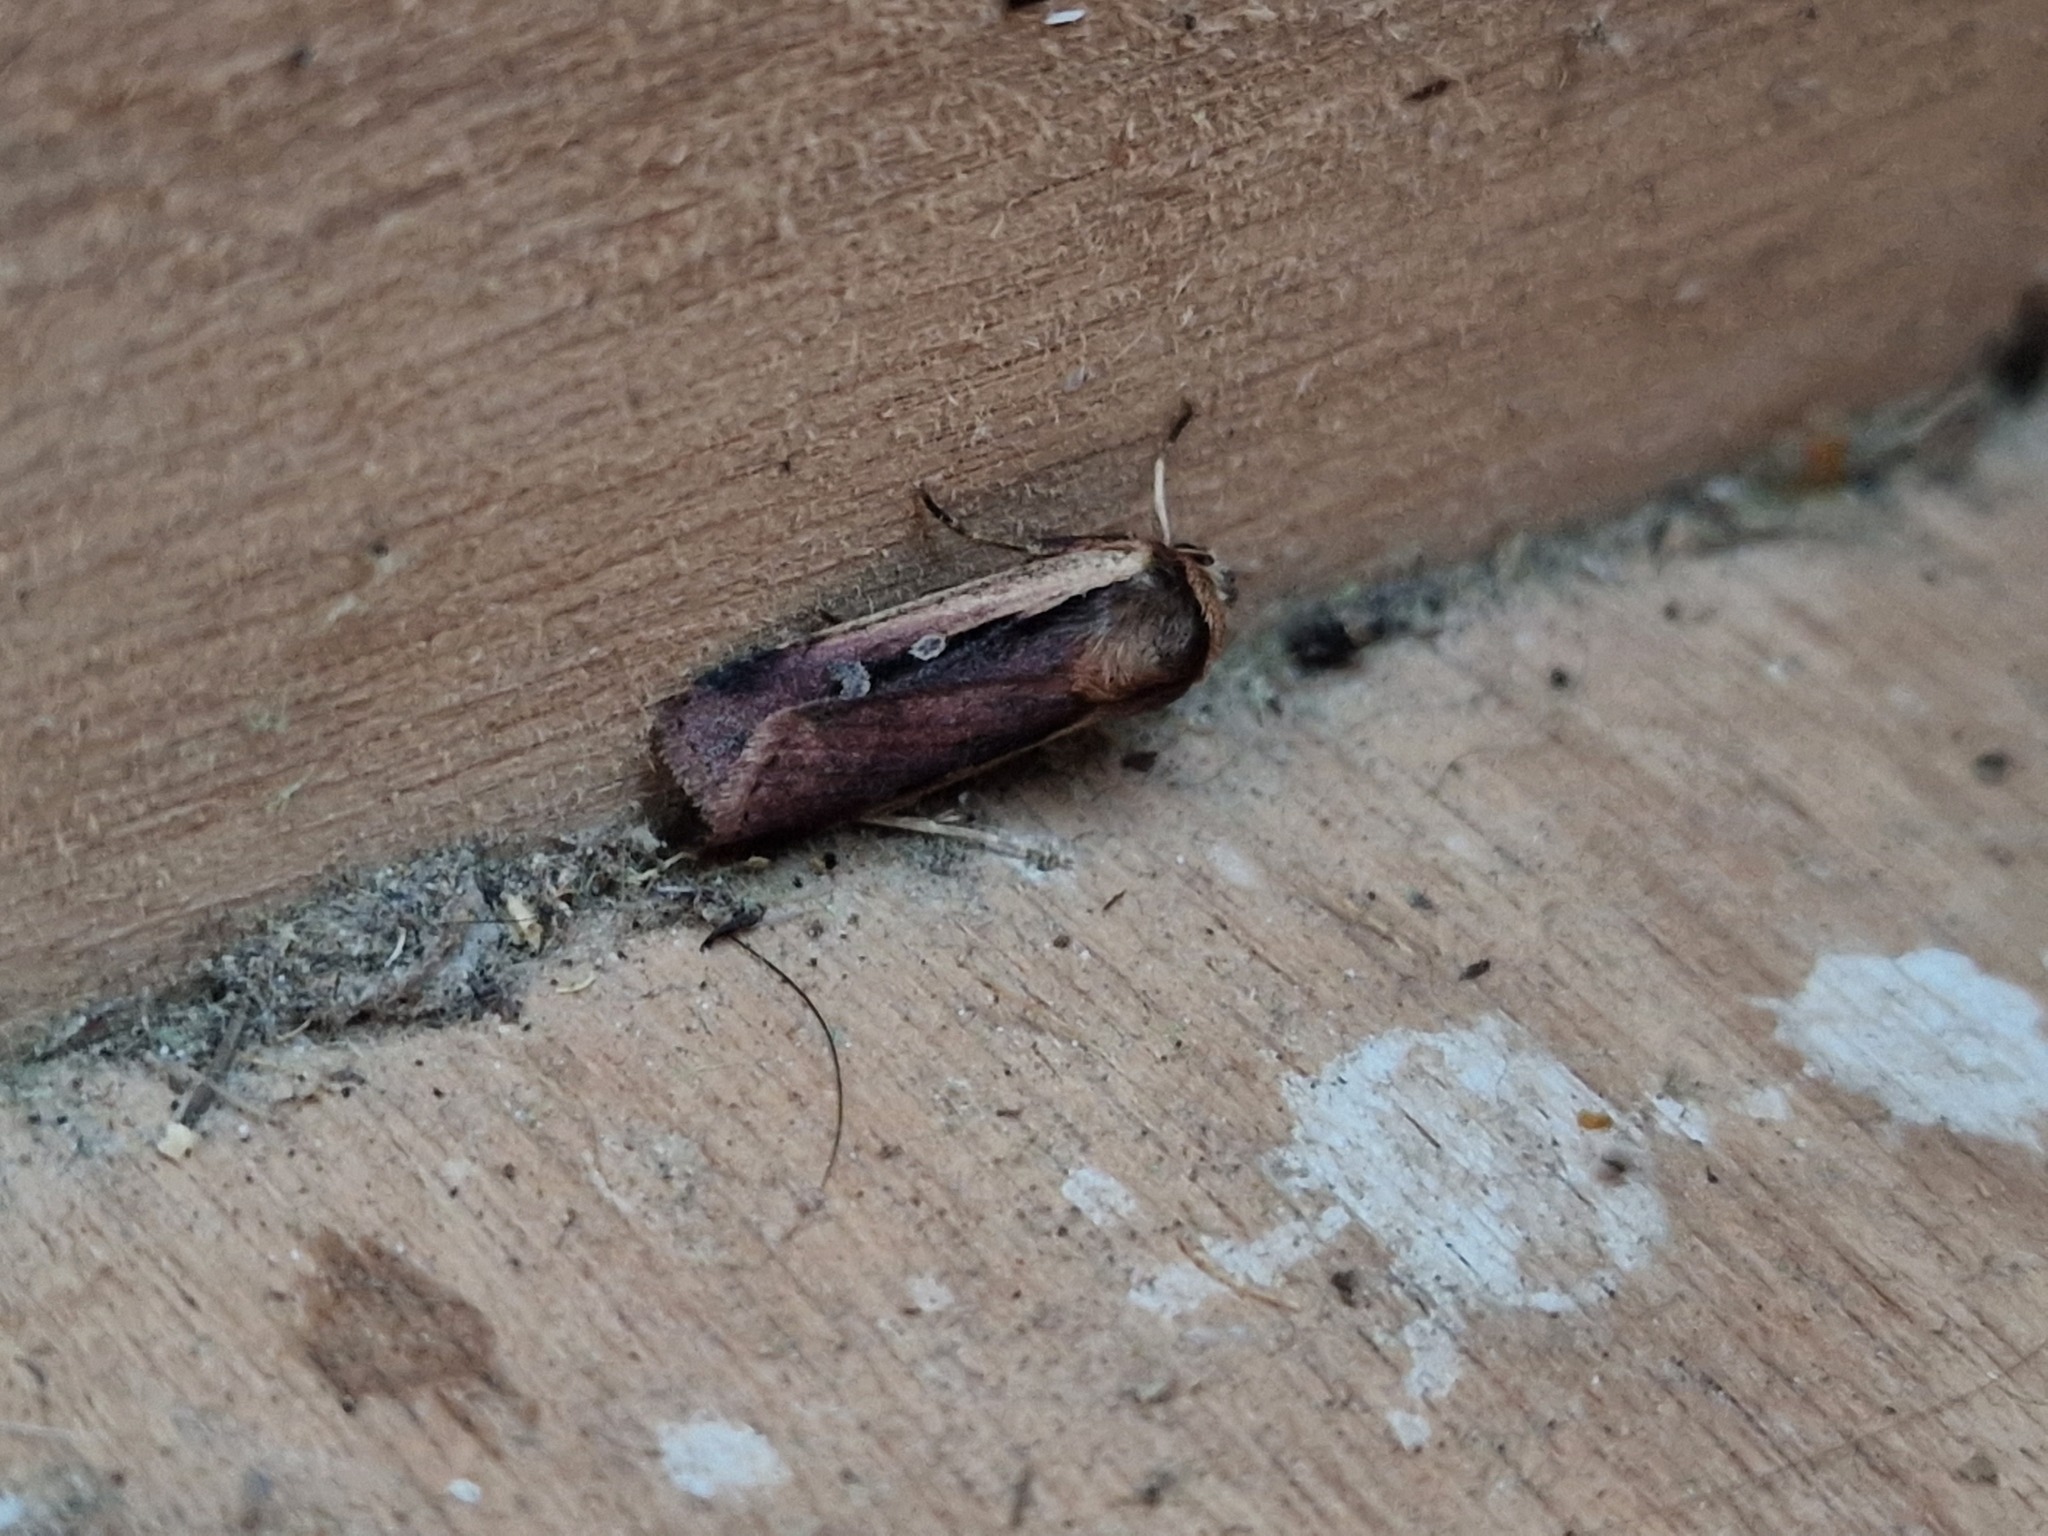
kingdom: Animalia
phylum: Arthropoda
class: Insecta
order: Lepidoptera
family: Noctuidae
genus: Ochropleura
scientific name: Ochropleura plecta
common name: Flame shoulder
